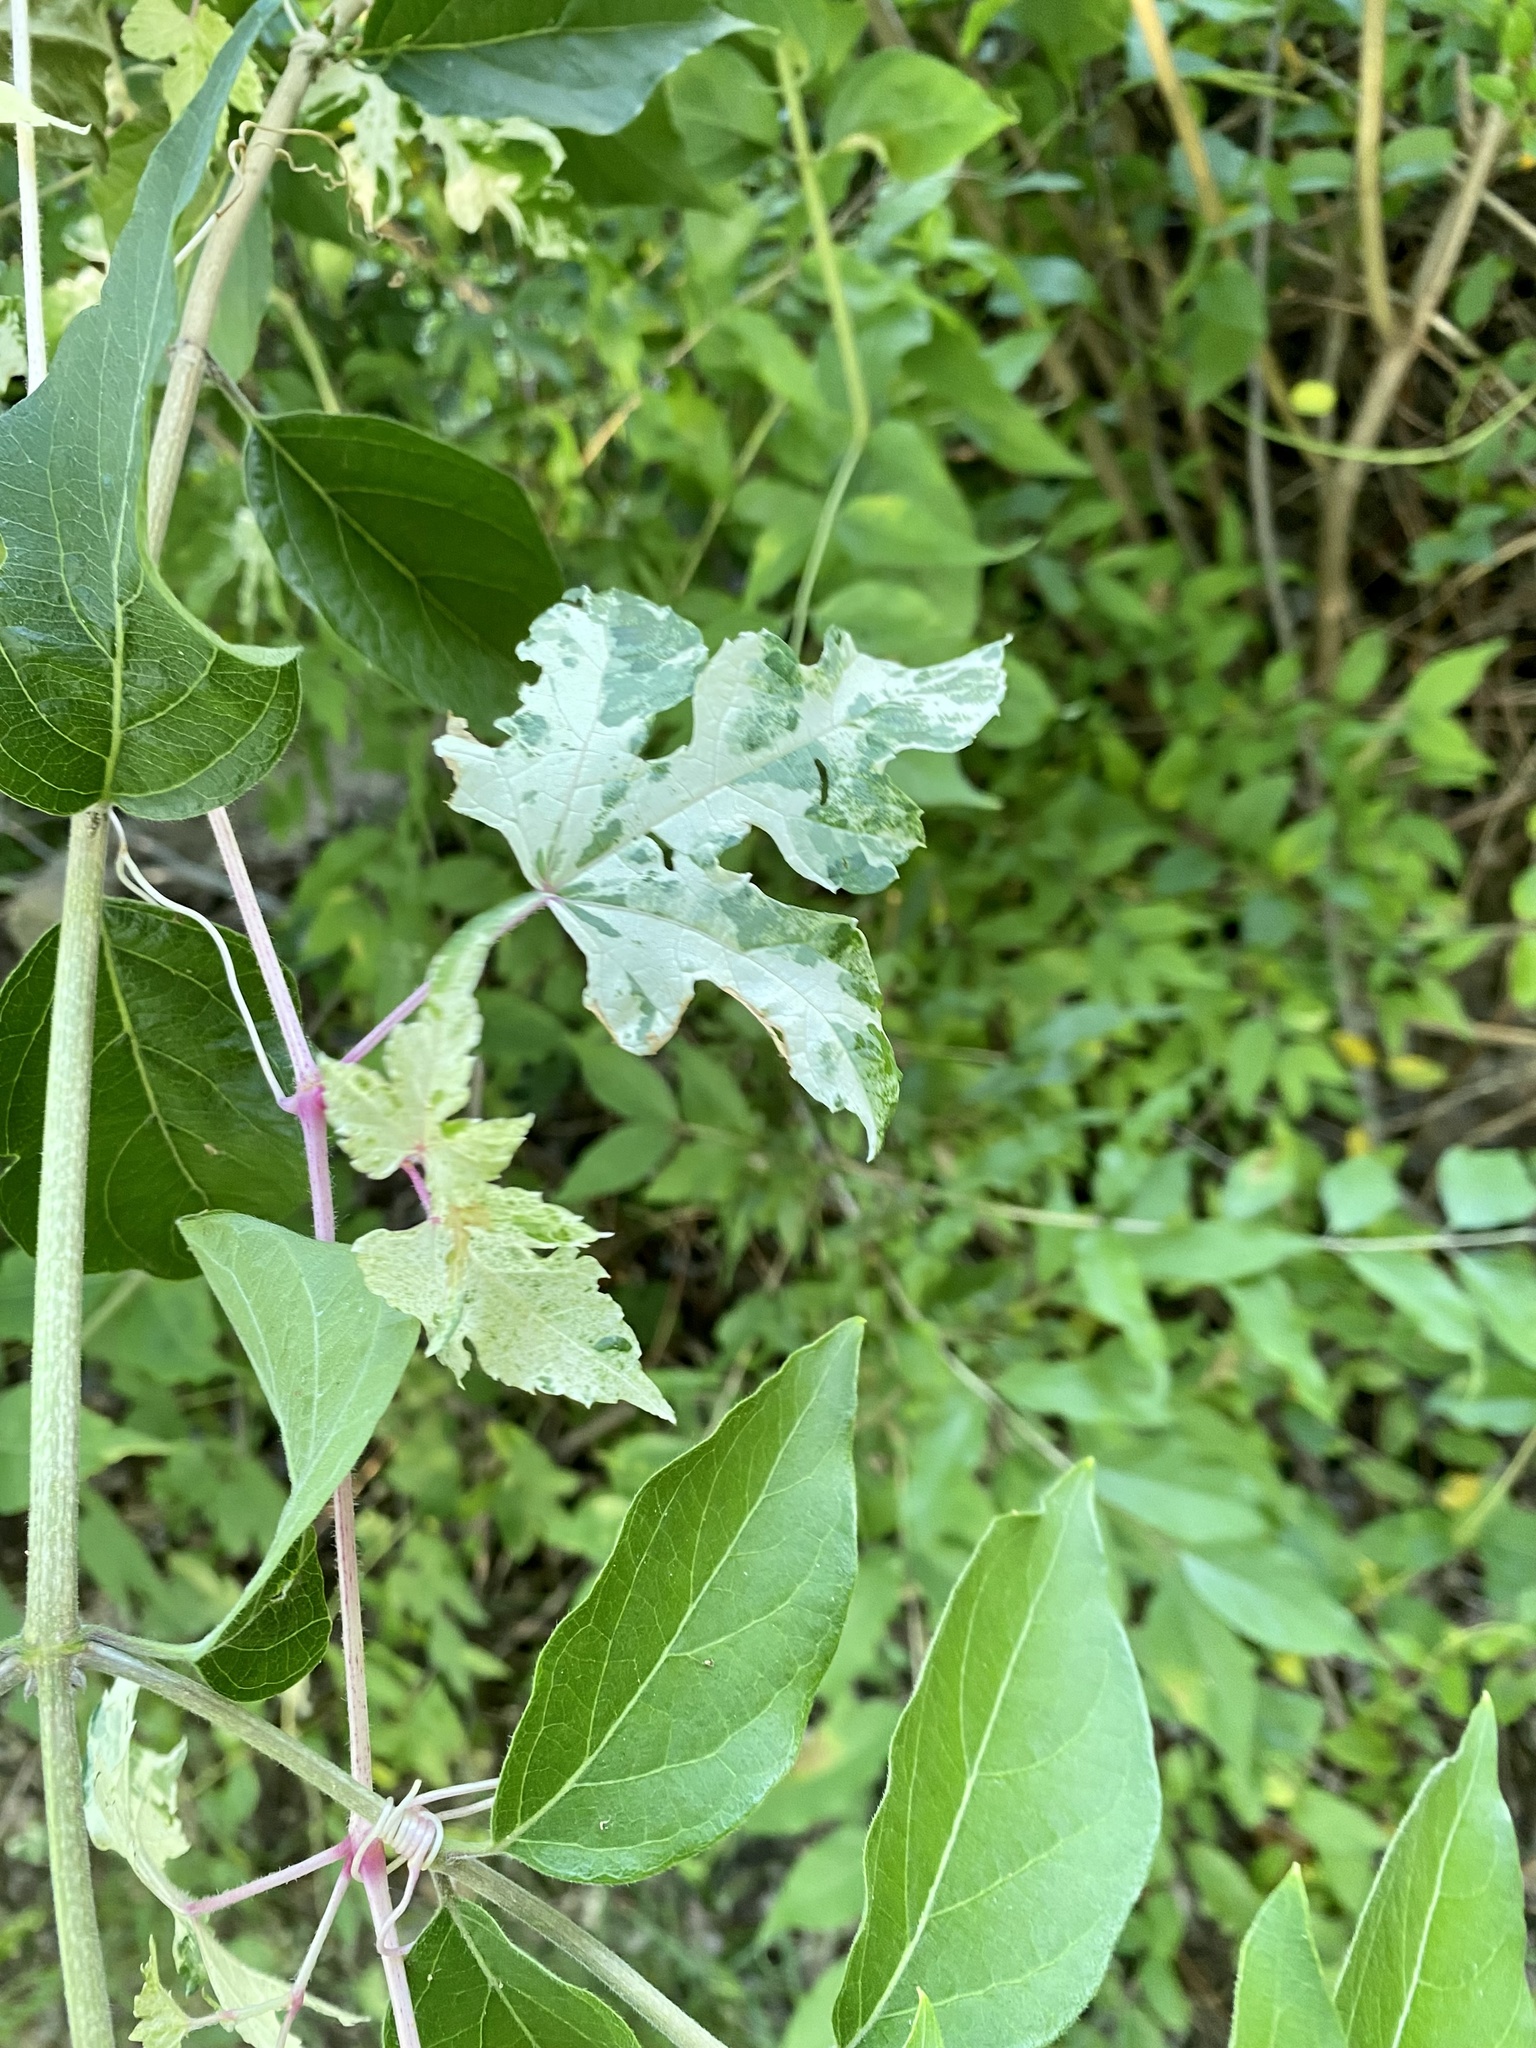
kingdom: Plantae
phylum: Tracheophyta
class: Magnoliopsida
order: Vitales
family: Vitaceae
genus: Ampelopsis
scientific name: Ampelopsis glandulosa
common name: Amur peppervine
